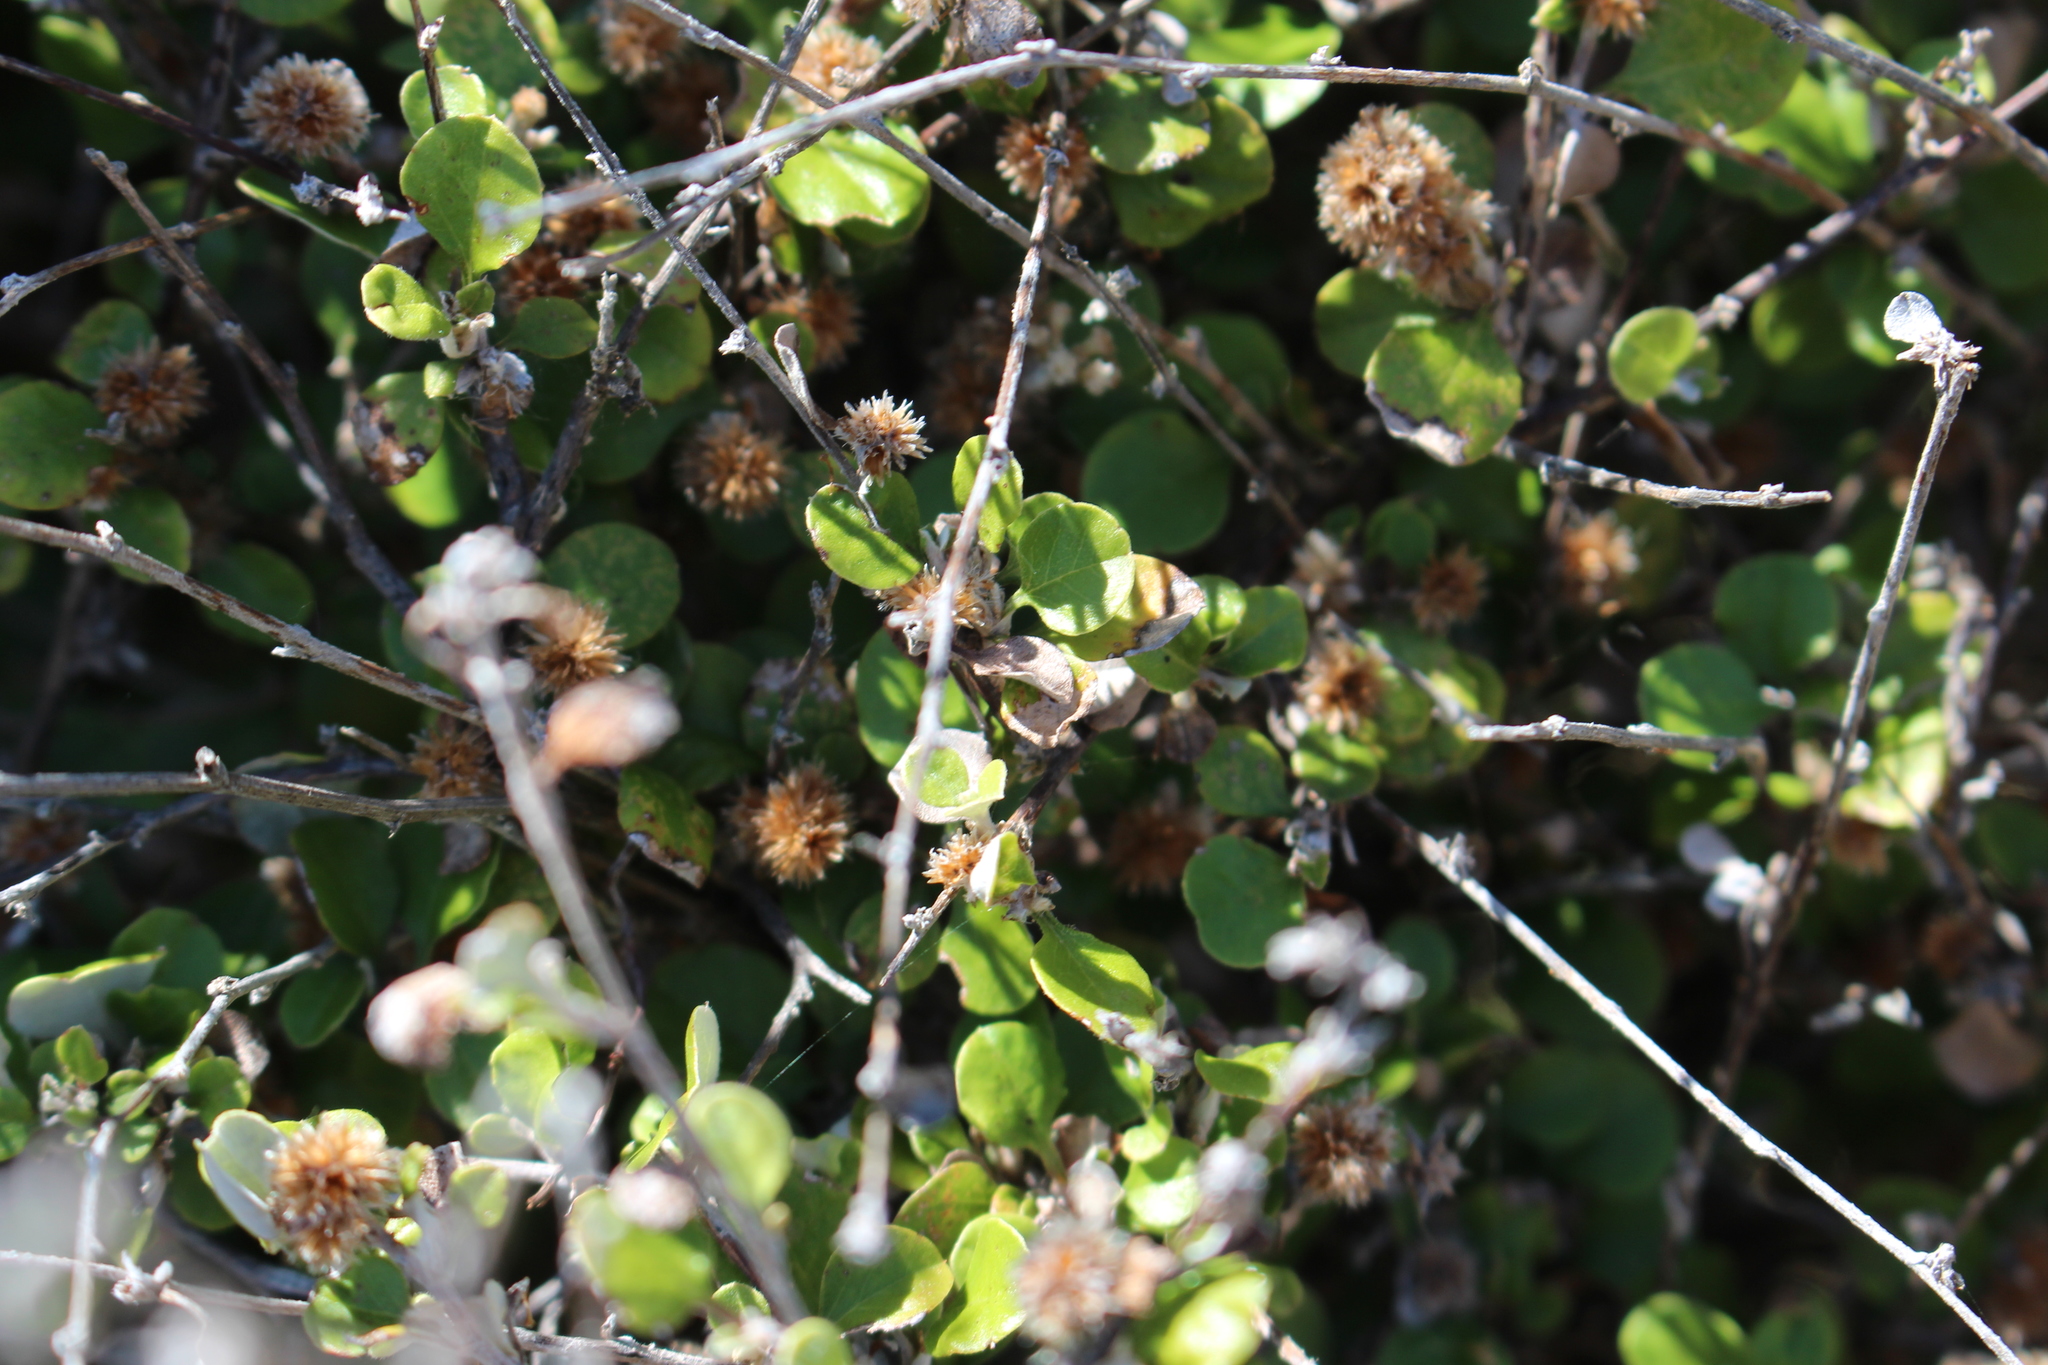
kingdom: Plantae
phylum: Tracheophyta
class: Magnoliopsida
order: Asterales
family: Asteraceae
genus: Ozothamnus
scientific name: Ozothamnus glomeratus
